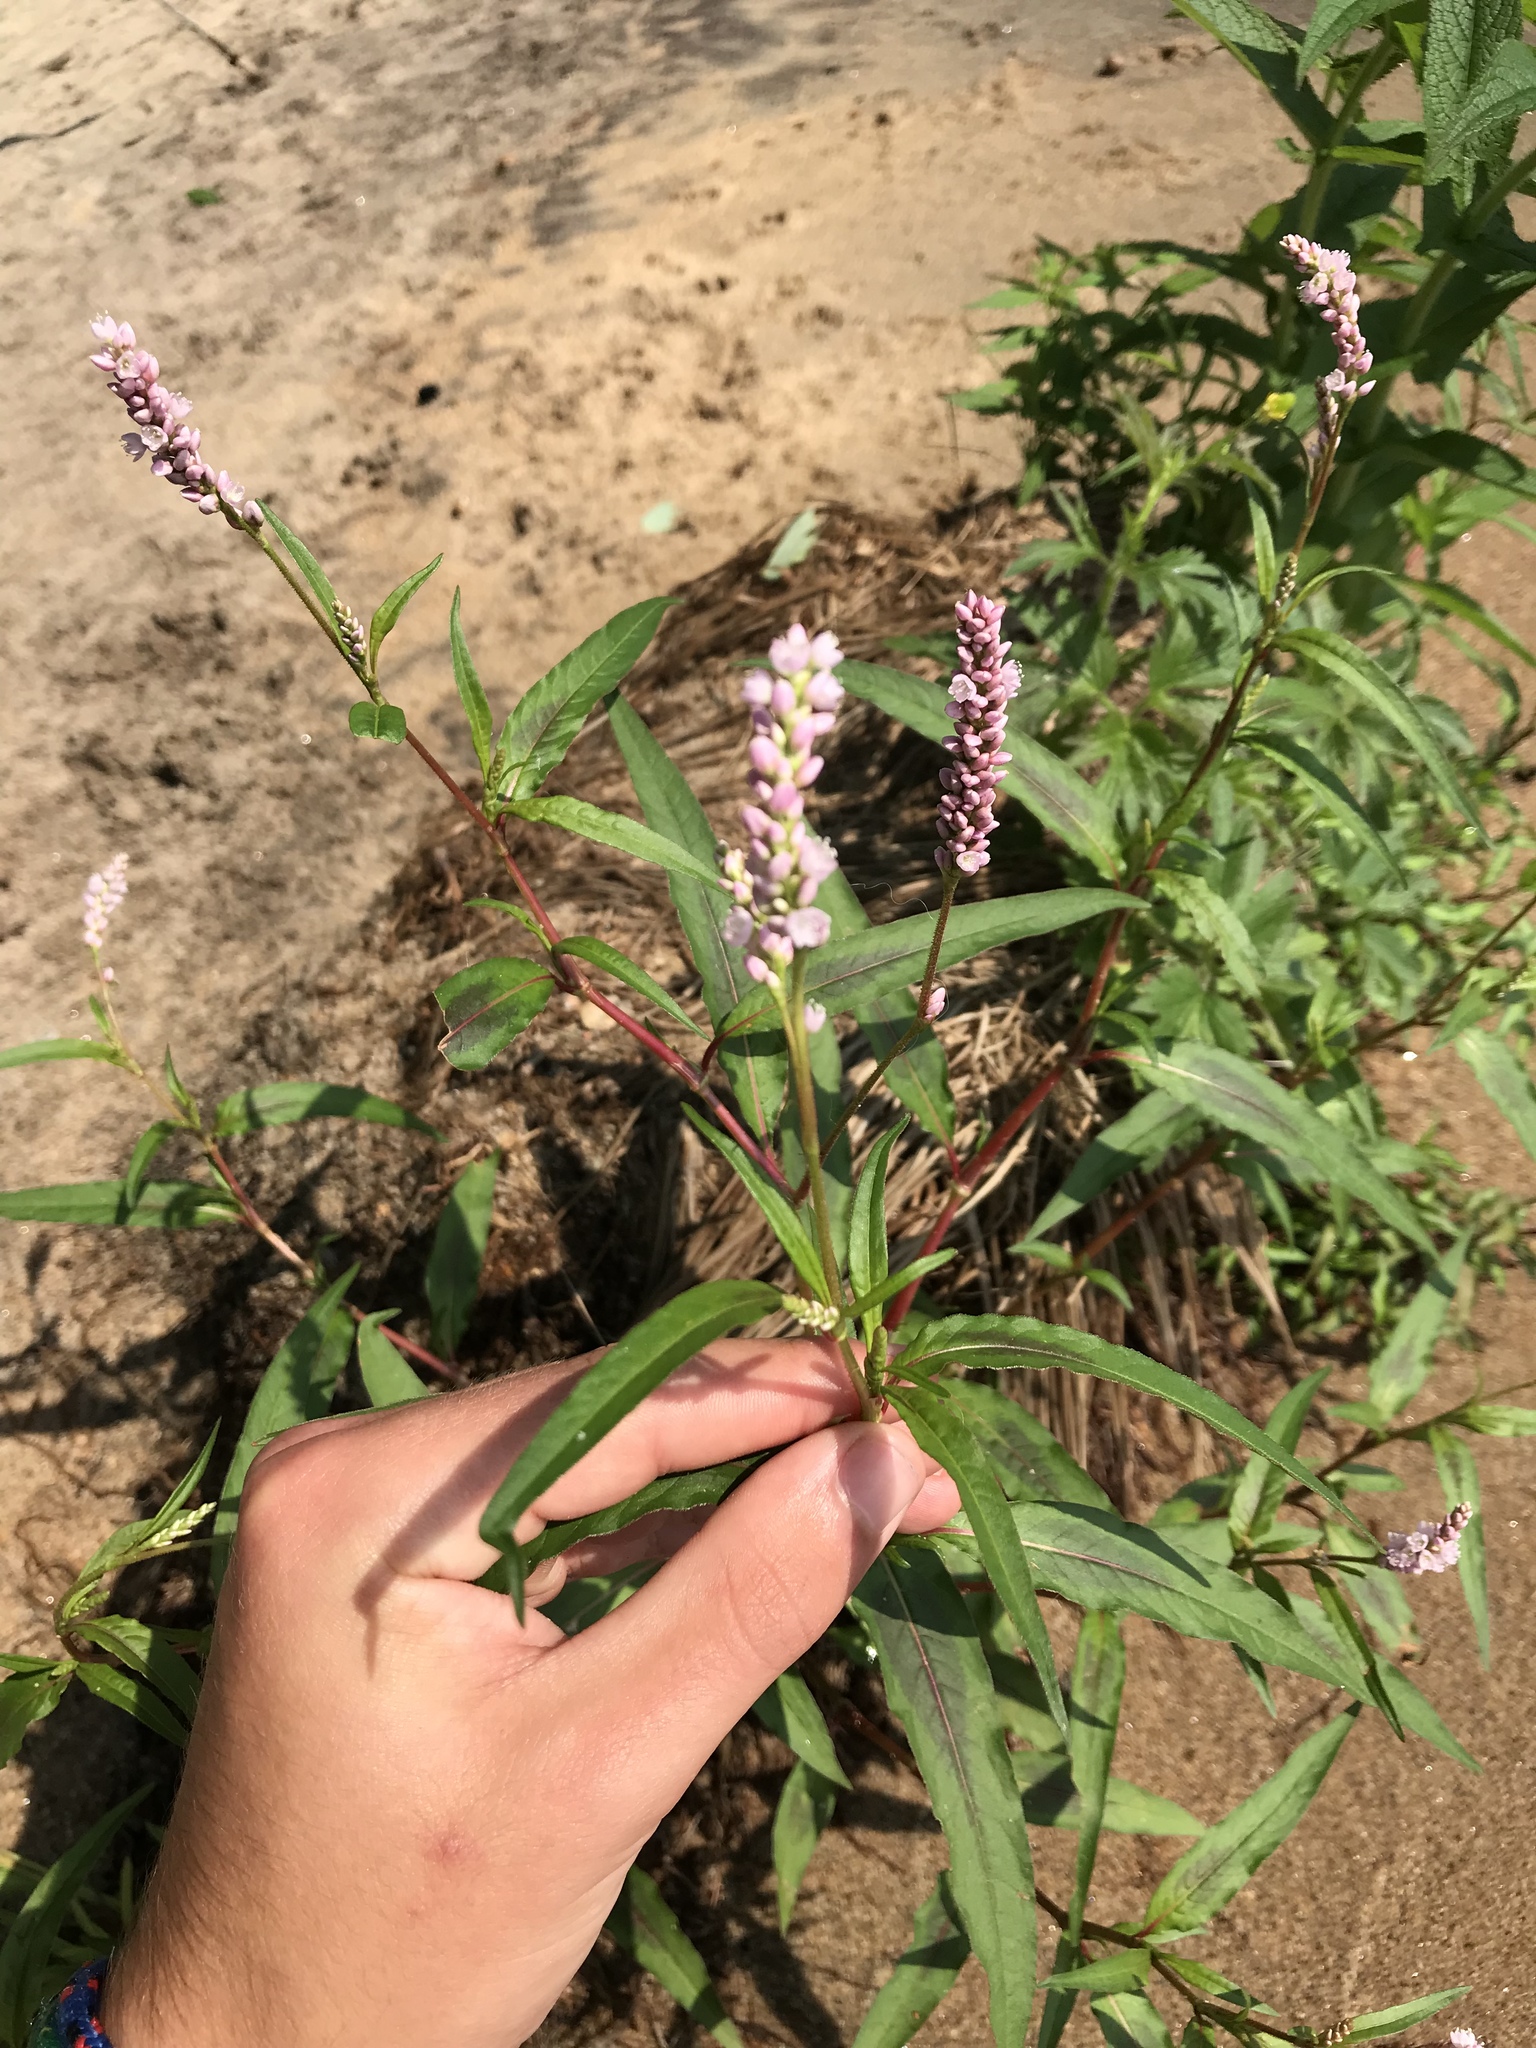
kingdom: Plantae
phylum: Tracheophyta
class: Magnoliopsida
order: Caryophyllales
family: Polygonaceae
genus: Persicaria
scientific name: Persicaria pensylvanica
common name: Pinkweed
